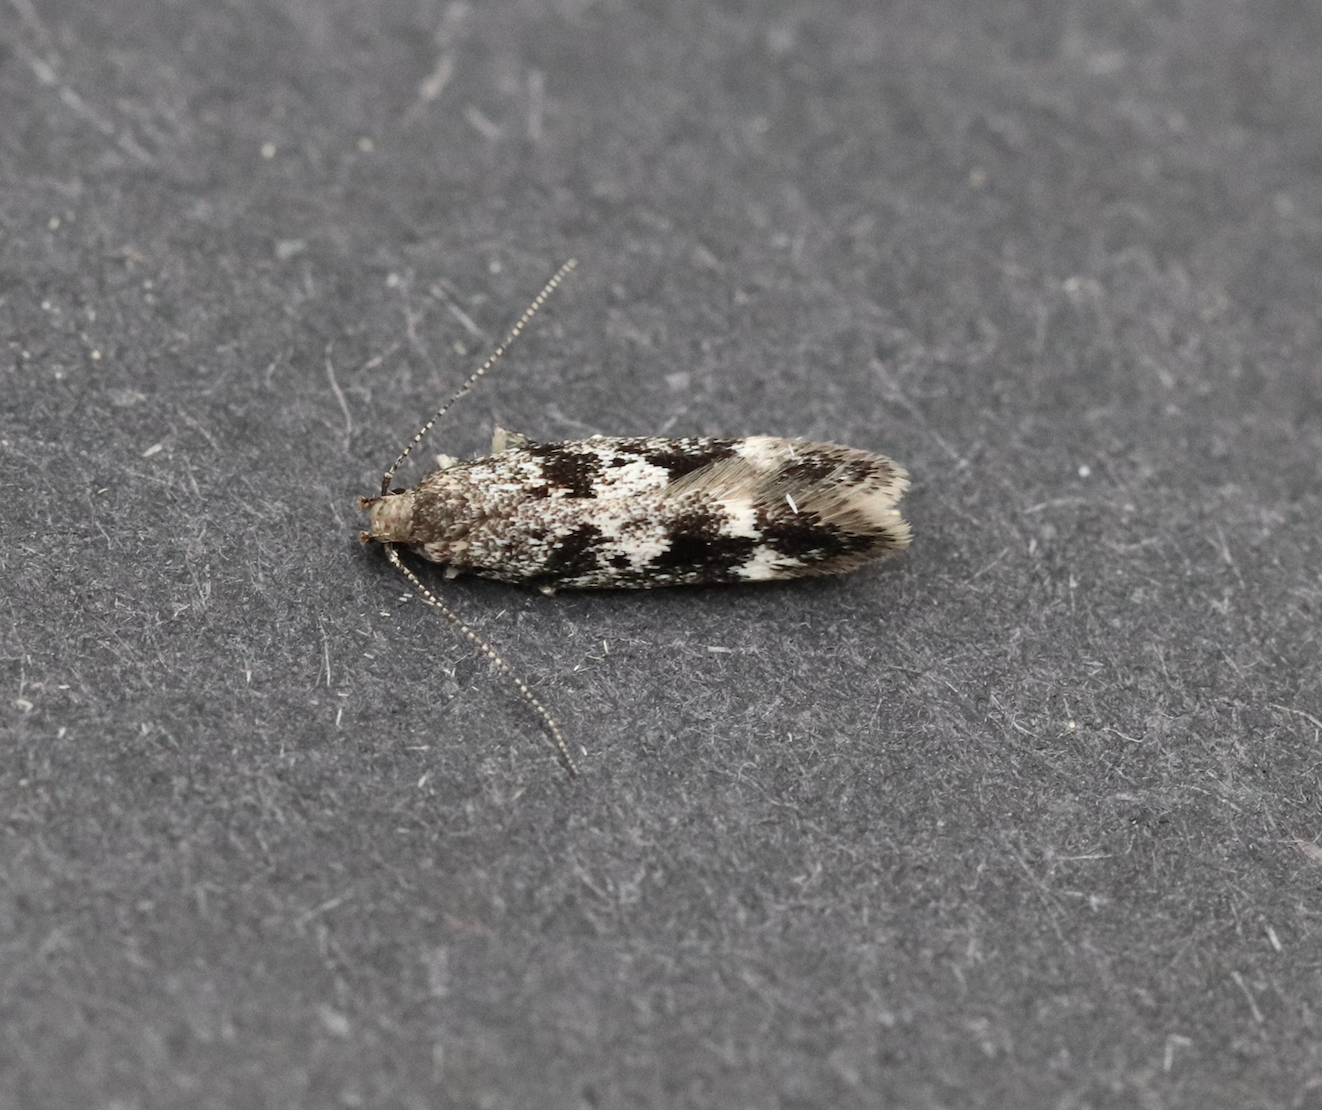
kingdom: Animalia
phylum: Arthropoda
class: Insecta
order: Lepidoptera
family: Gelechiidae
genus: Caryocolum
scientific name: Caryocolum cassella
